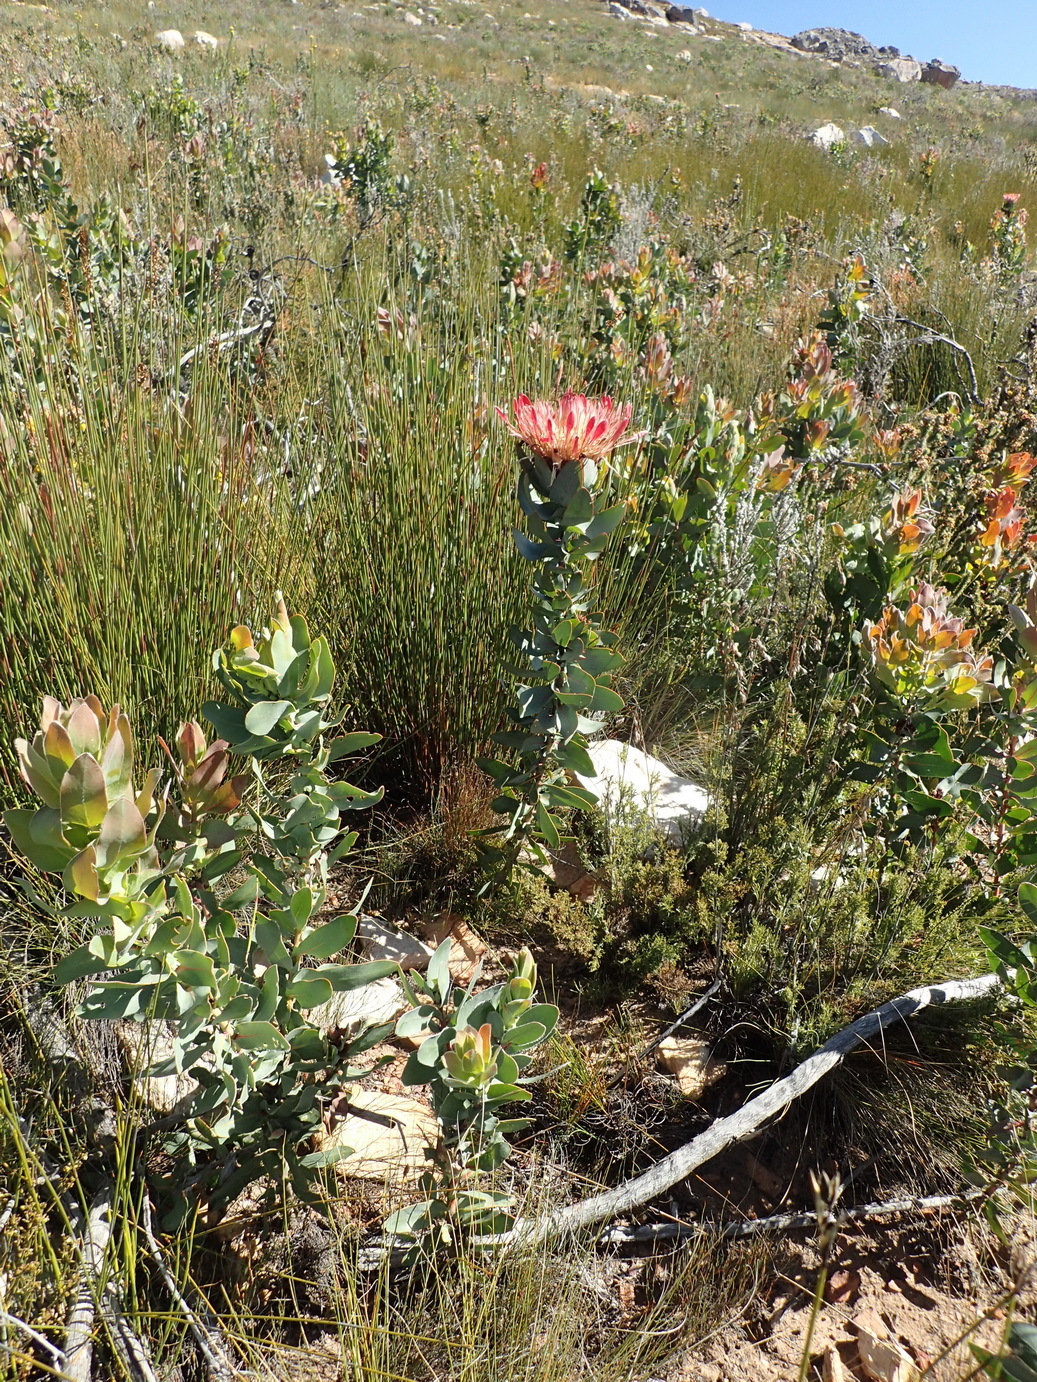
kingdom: Plantae
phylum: Tracheophyta
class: Magnoliopsida
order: Proteales
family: Proteaceae
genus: Protea
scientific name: Protea eximia
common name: Broad-leaved sugarbush
